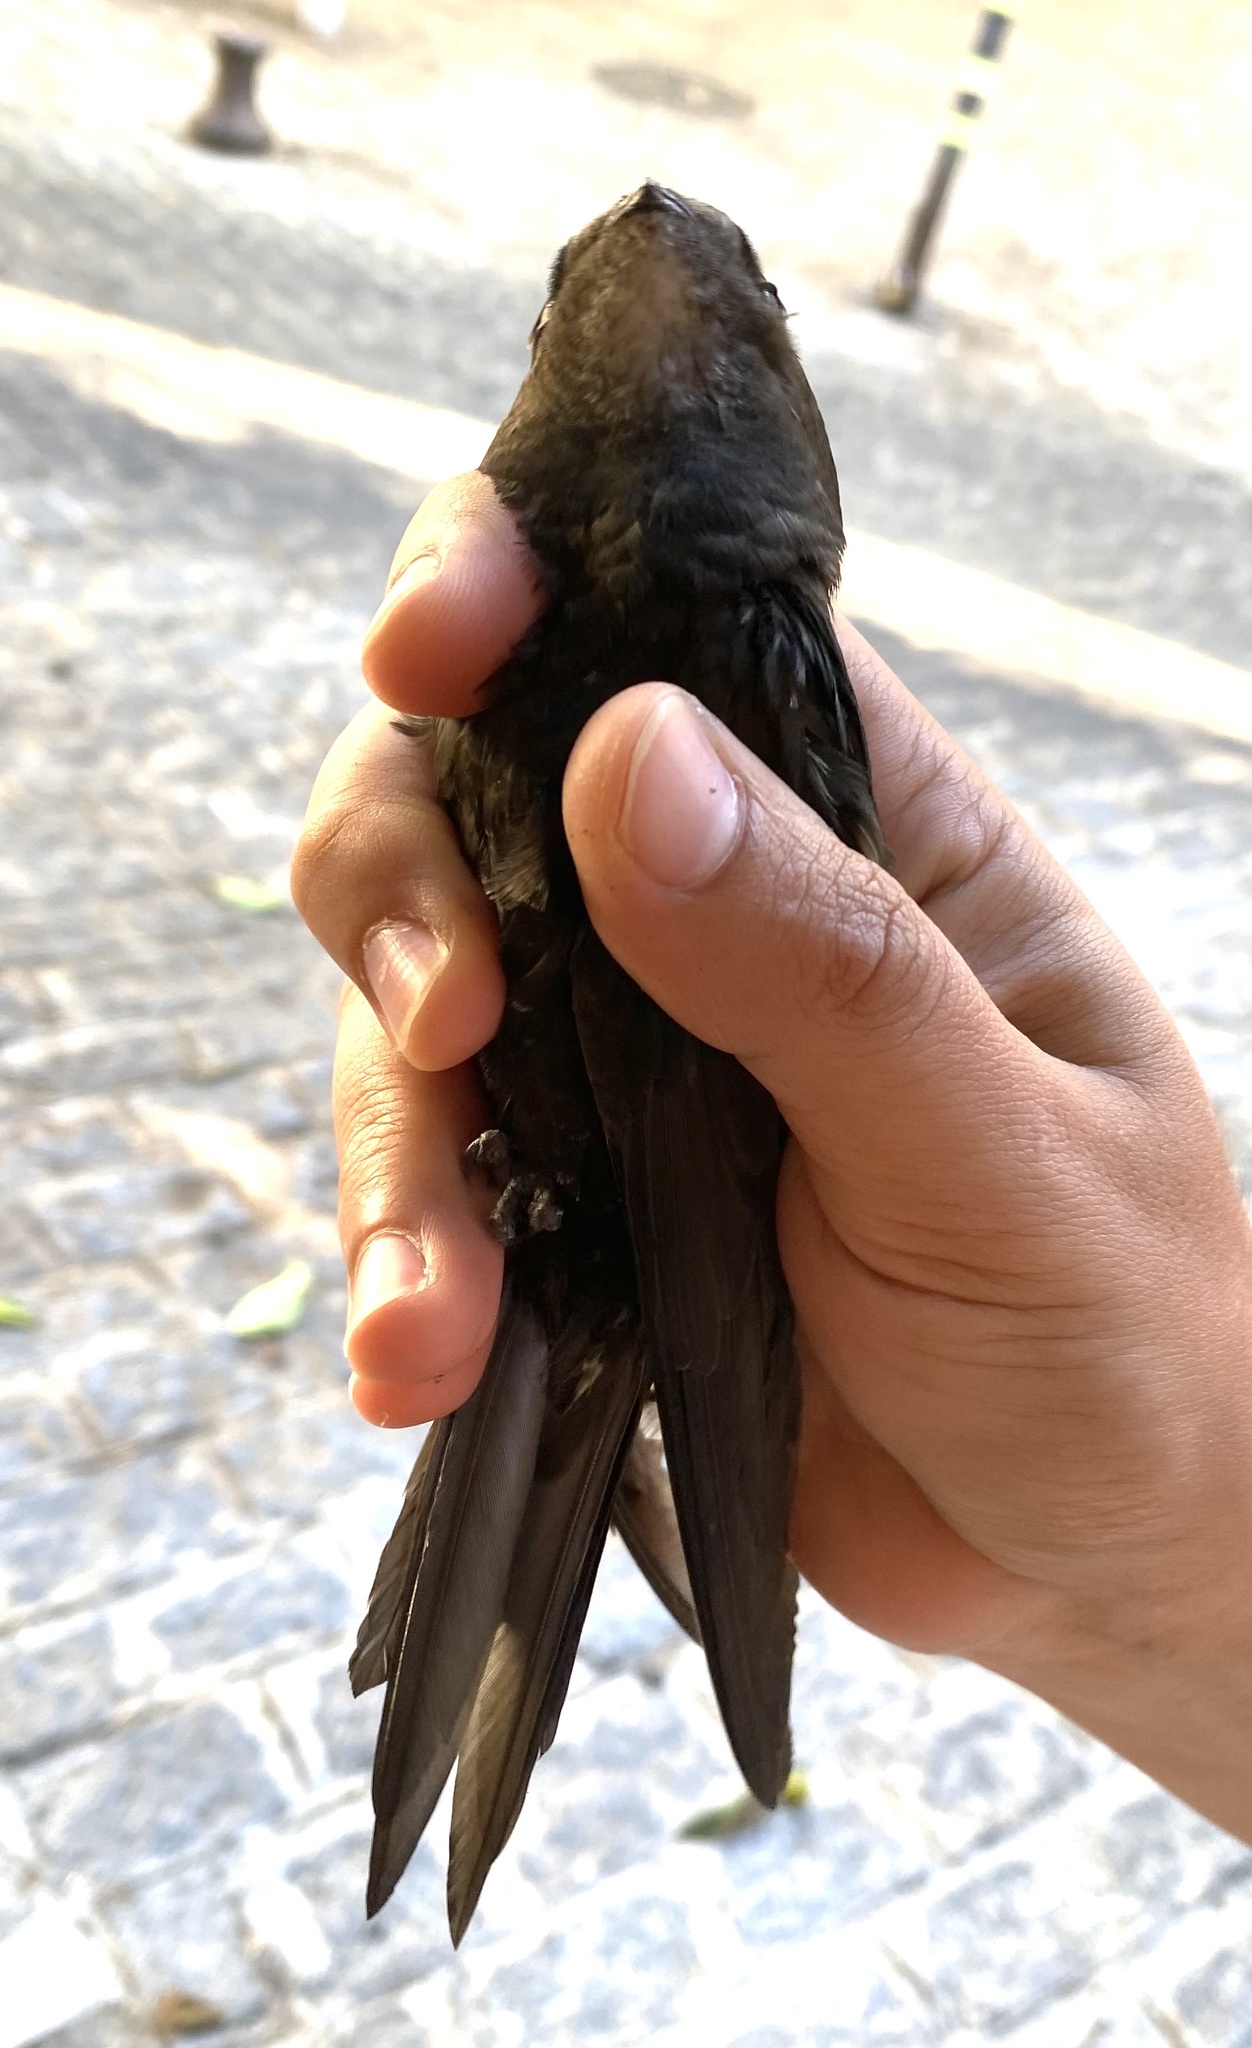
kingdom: Animalia
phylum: Chordata
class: Aves
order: Apodiformes
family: Apodidae
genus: Apus
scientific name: Apus apus
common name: Common swift
